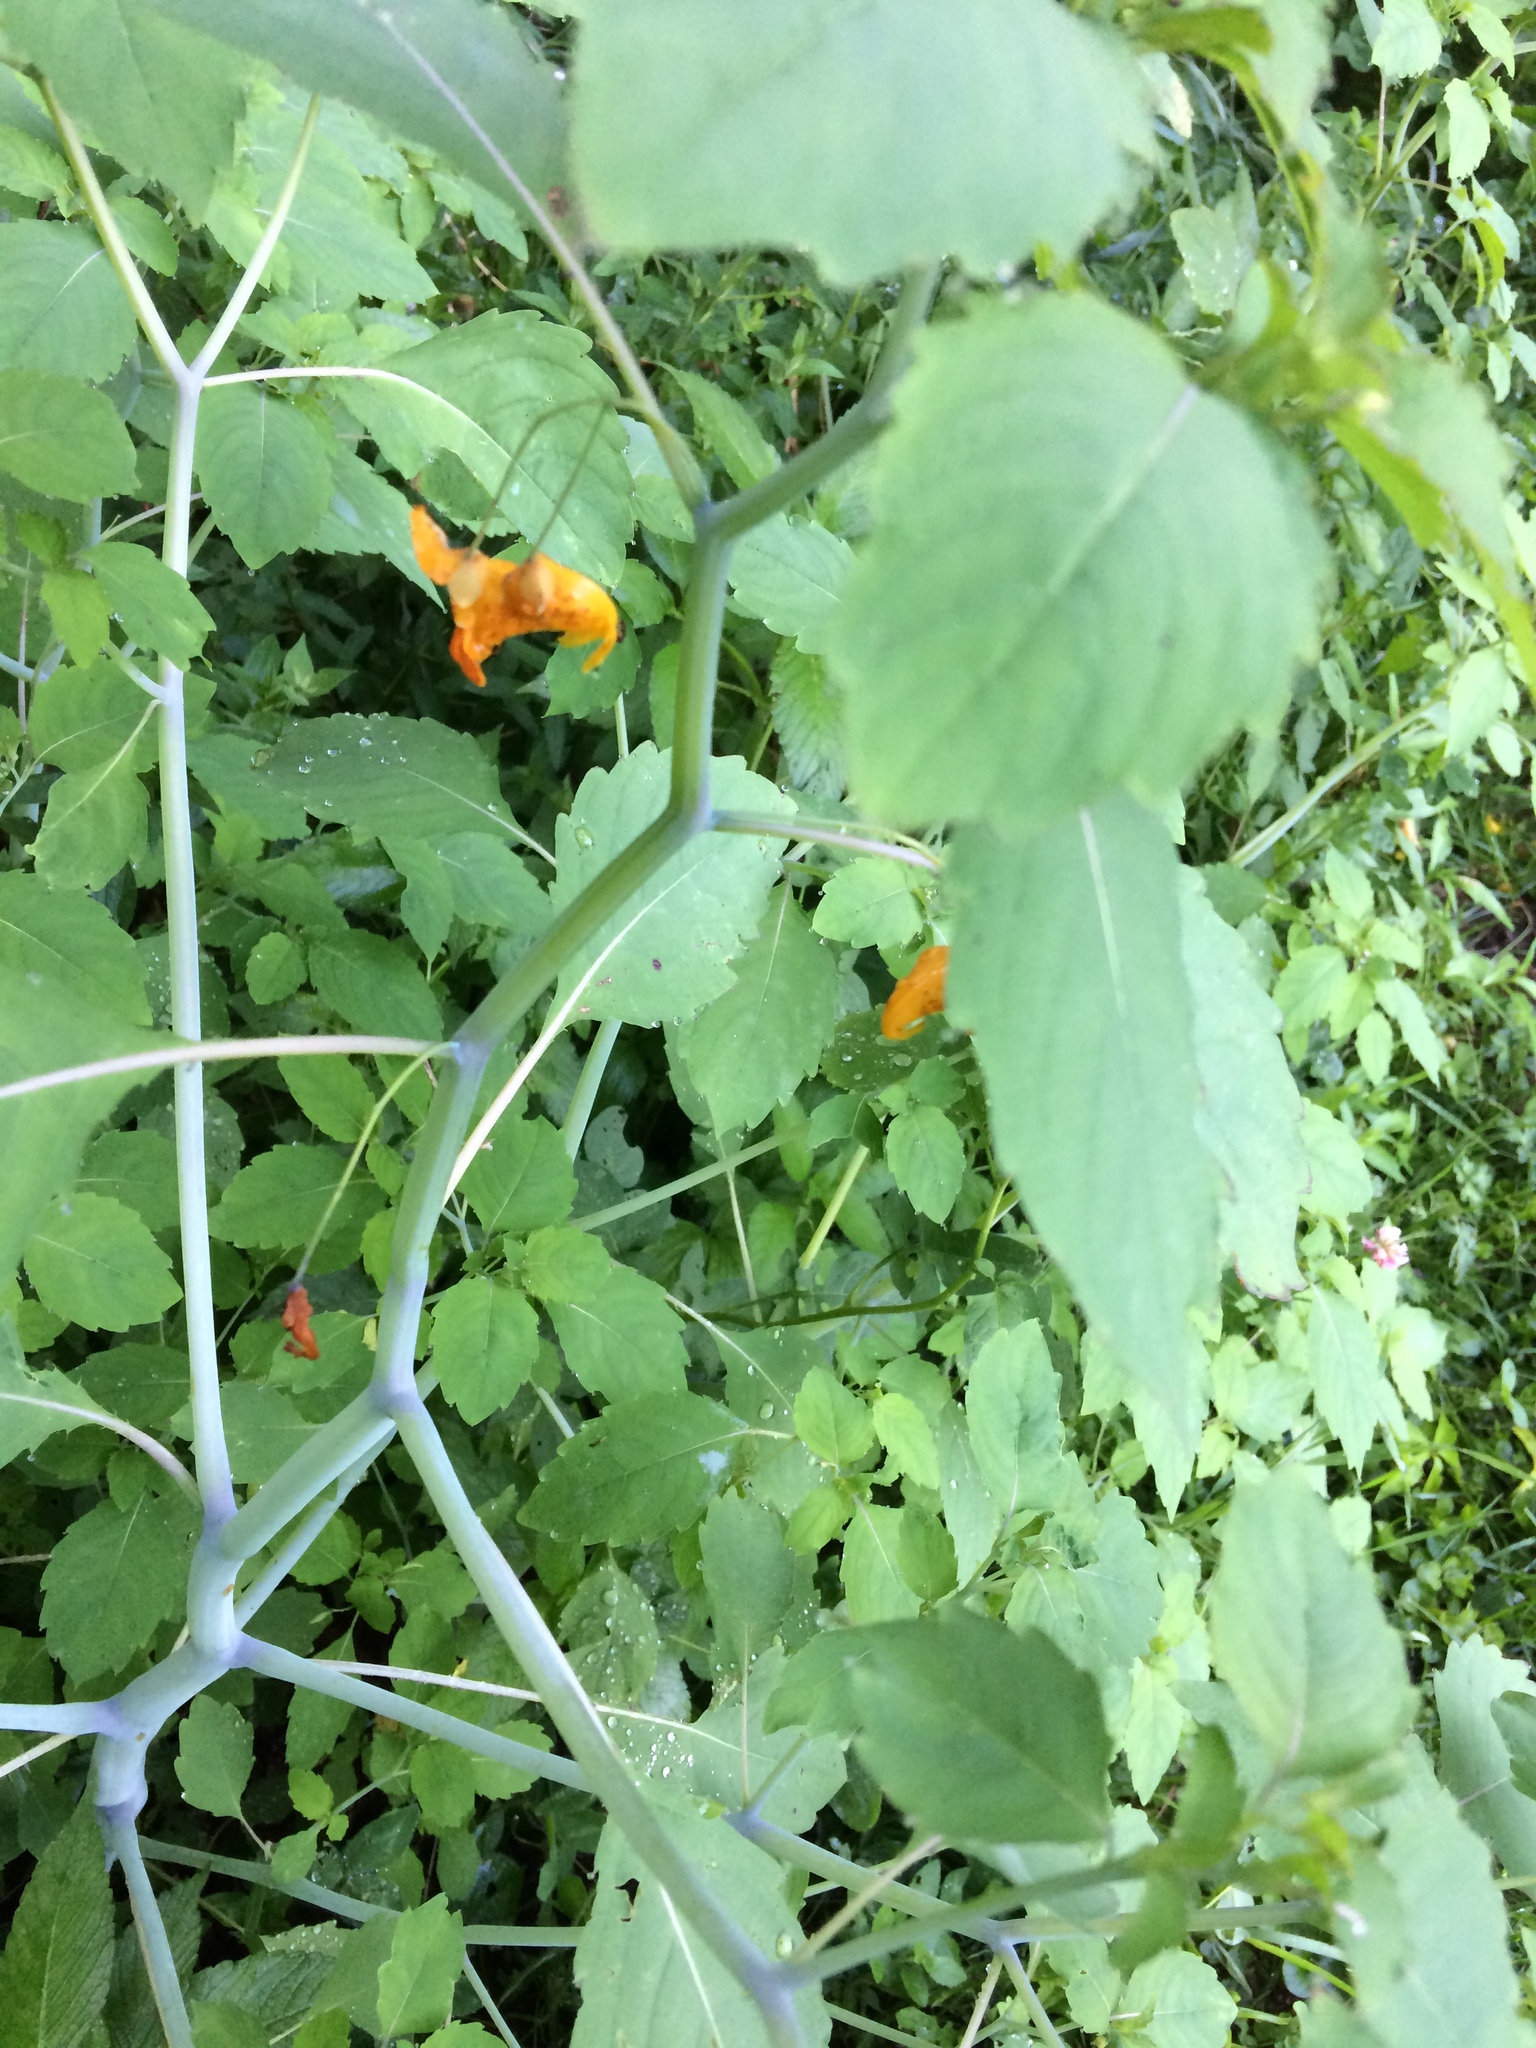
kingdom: Plantae
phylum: Tracheophyta
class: Magnoliopsida
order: Ericales
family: Balsaminaceae
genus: Impatiens
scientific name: Impatiens capensis
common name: Orange balsam
